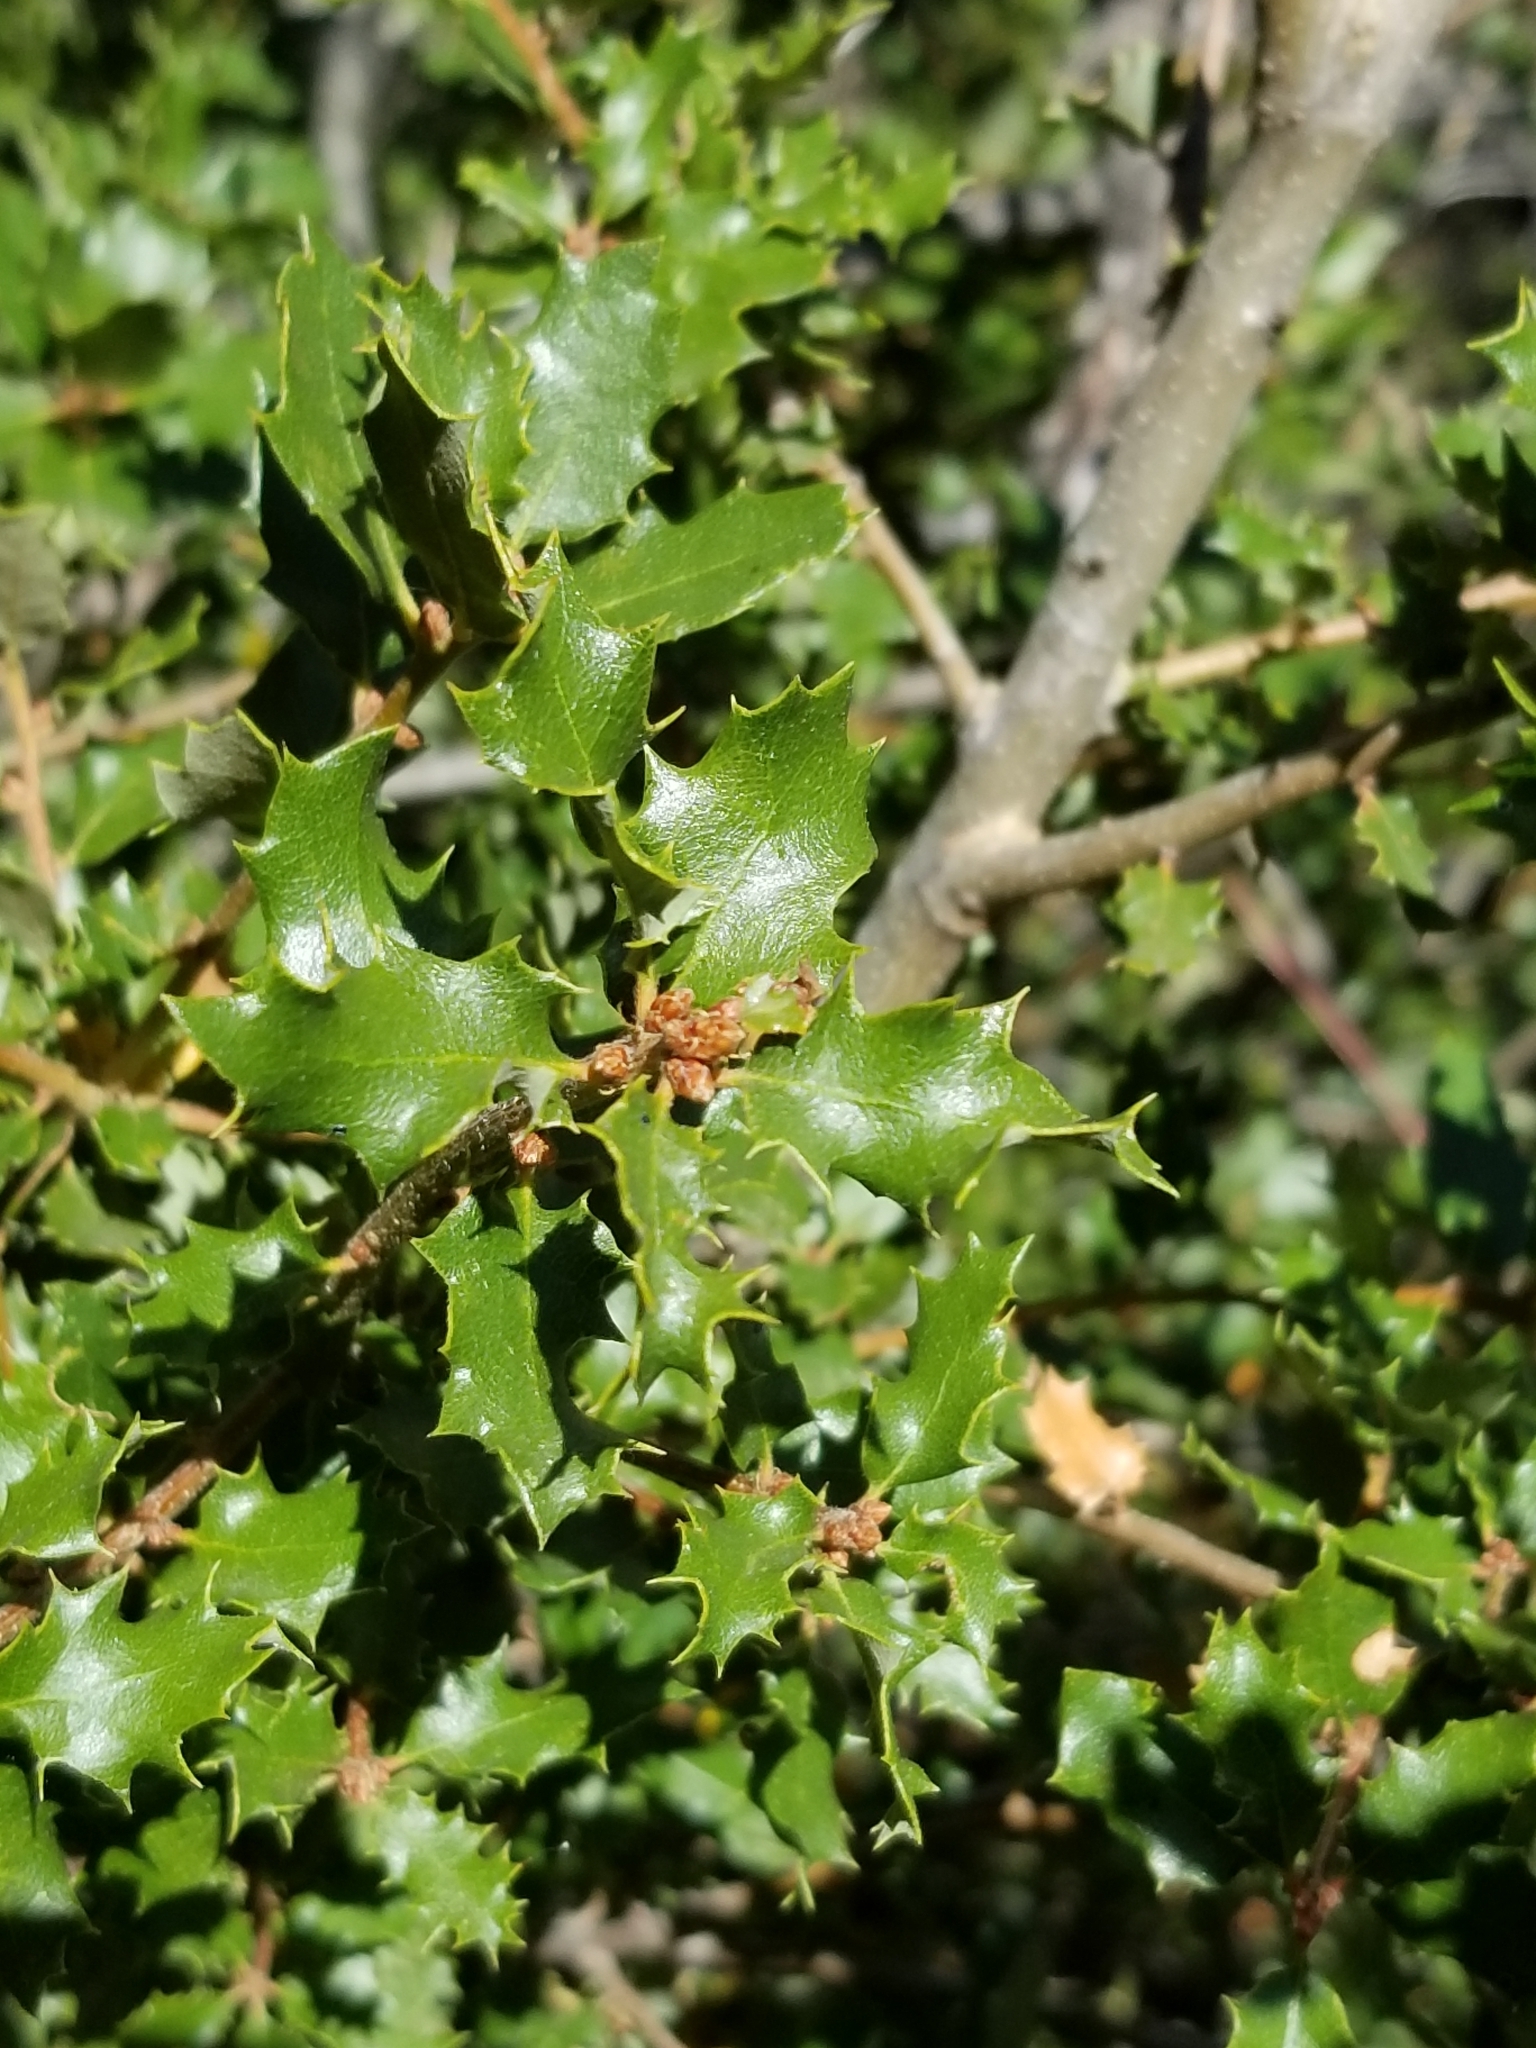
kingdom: Plantae
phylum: Tracheophyta
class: Magnoliopsida
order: Fagales
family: Fagaceae
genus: Quercus
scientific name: Quercus palmeri
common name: Dunn oak
